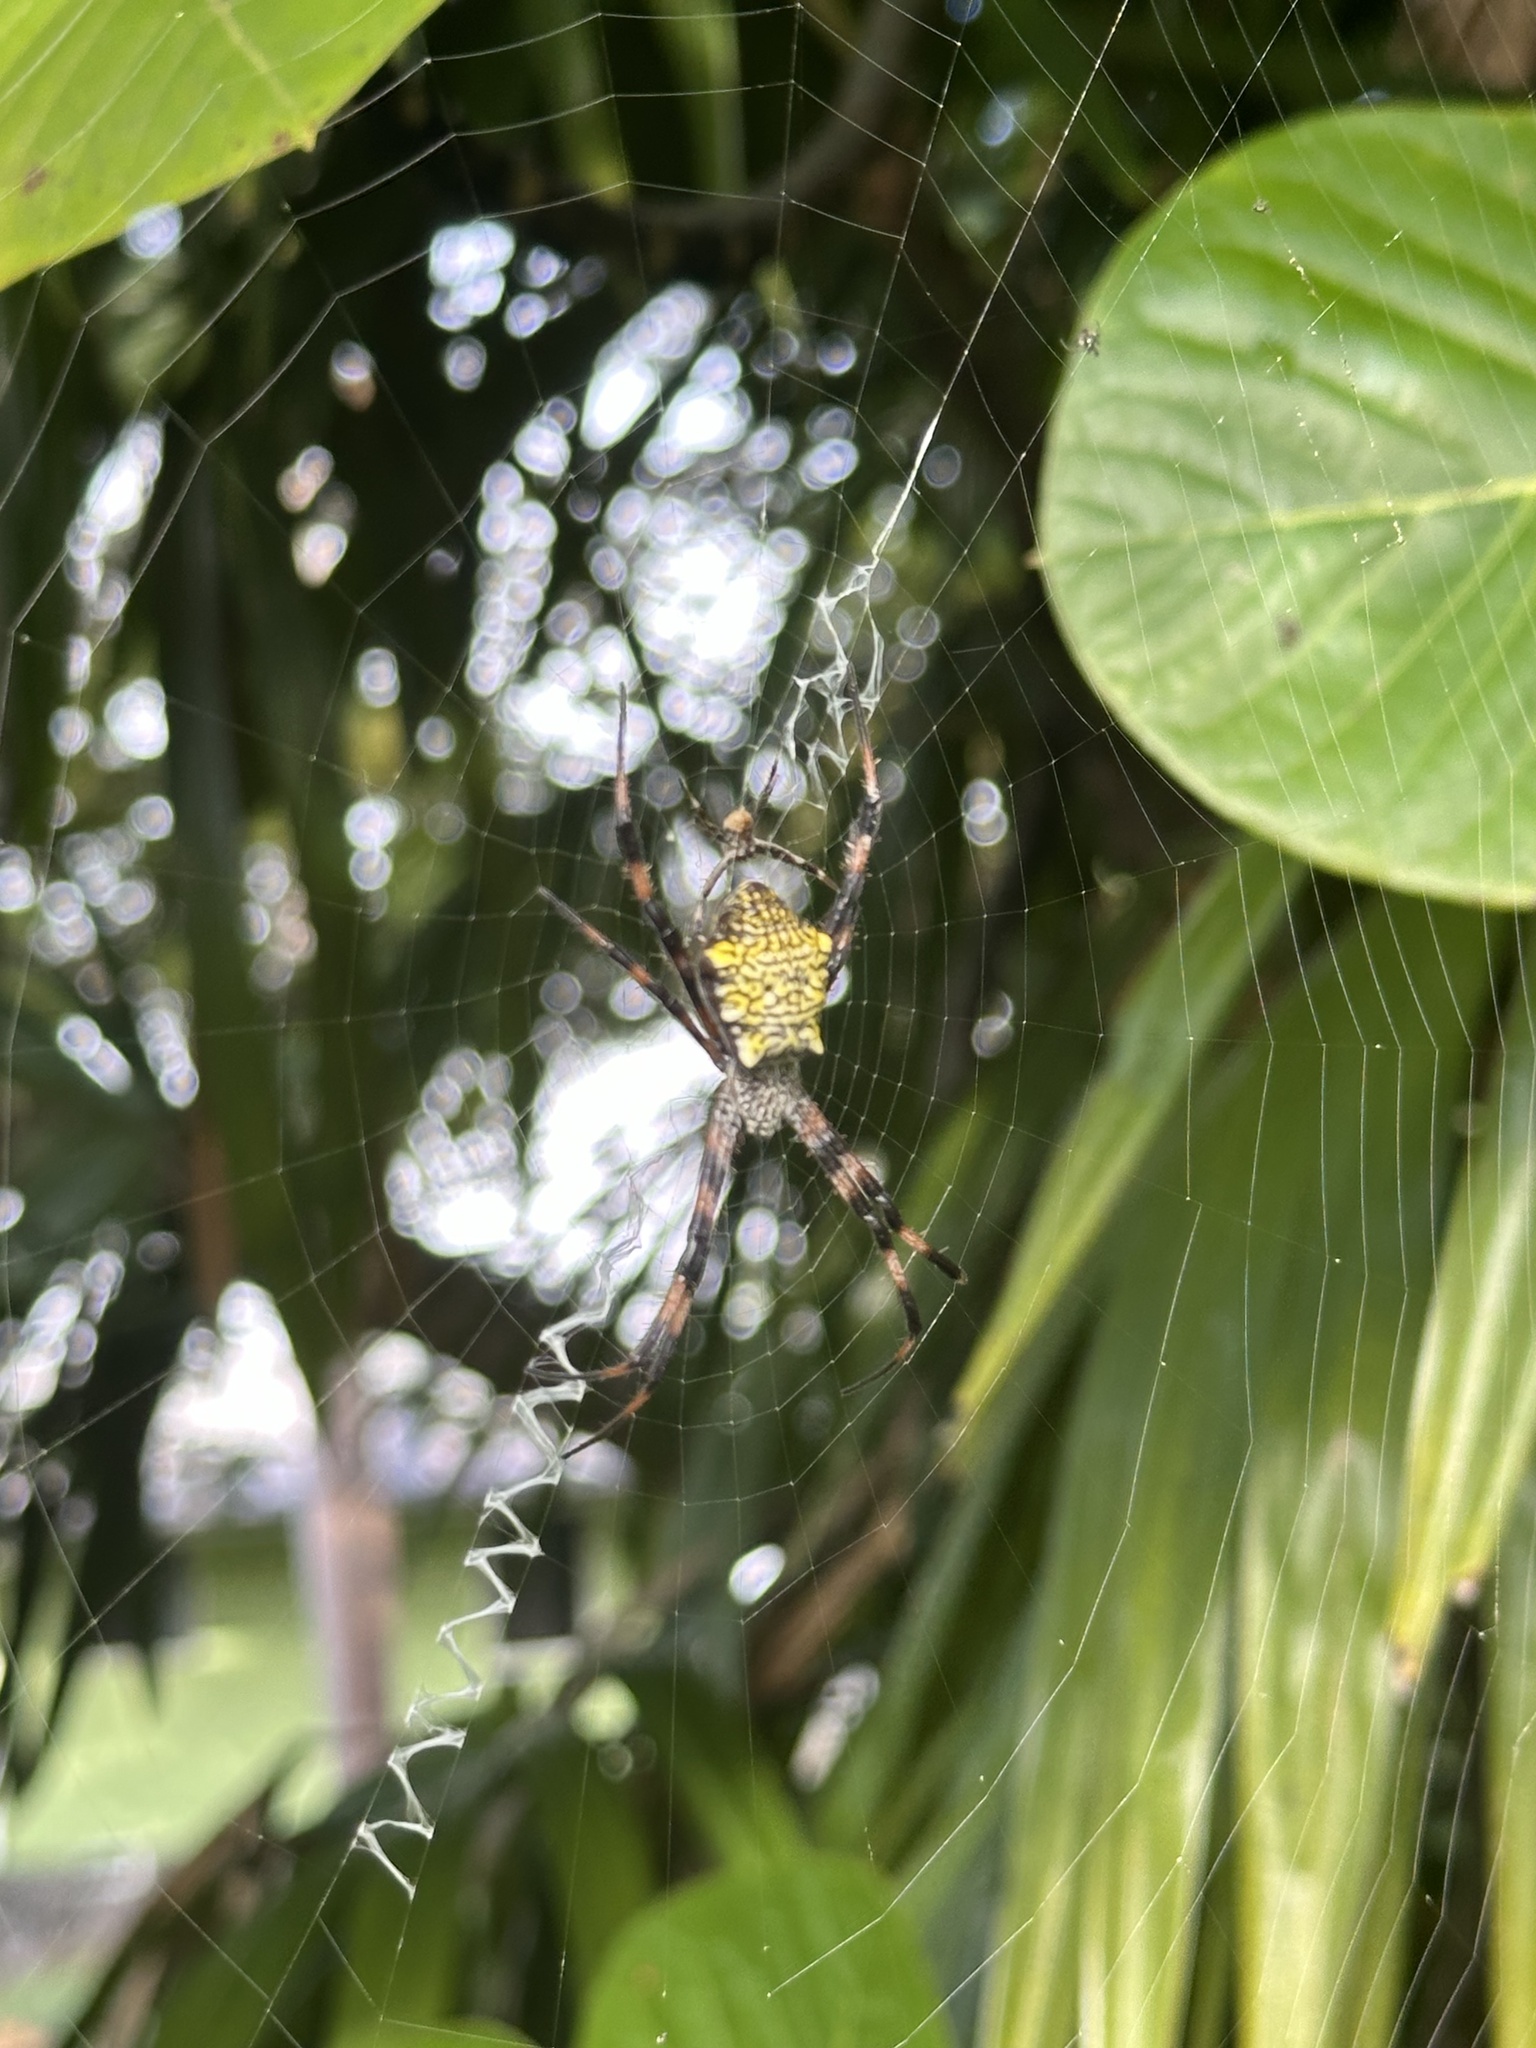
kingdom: Animalia
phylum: Arthropoda
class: Arachnida
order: Araneae
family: Araneidae
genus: Argiope
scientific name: Argiope appensa
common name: Garden spider
